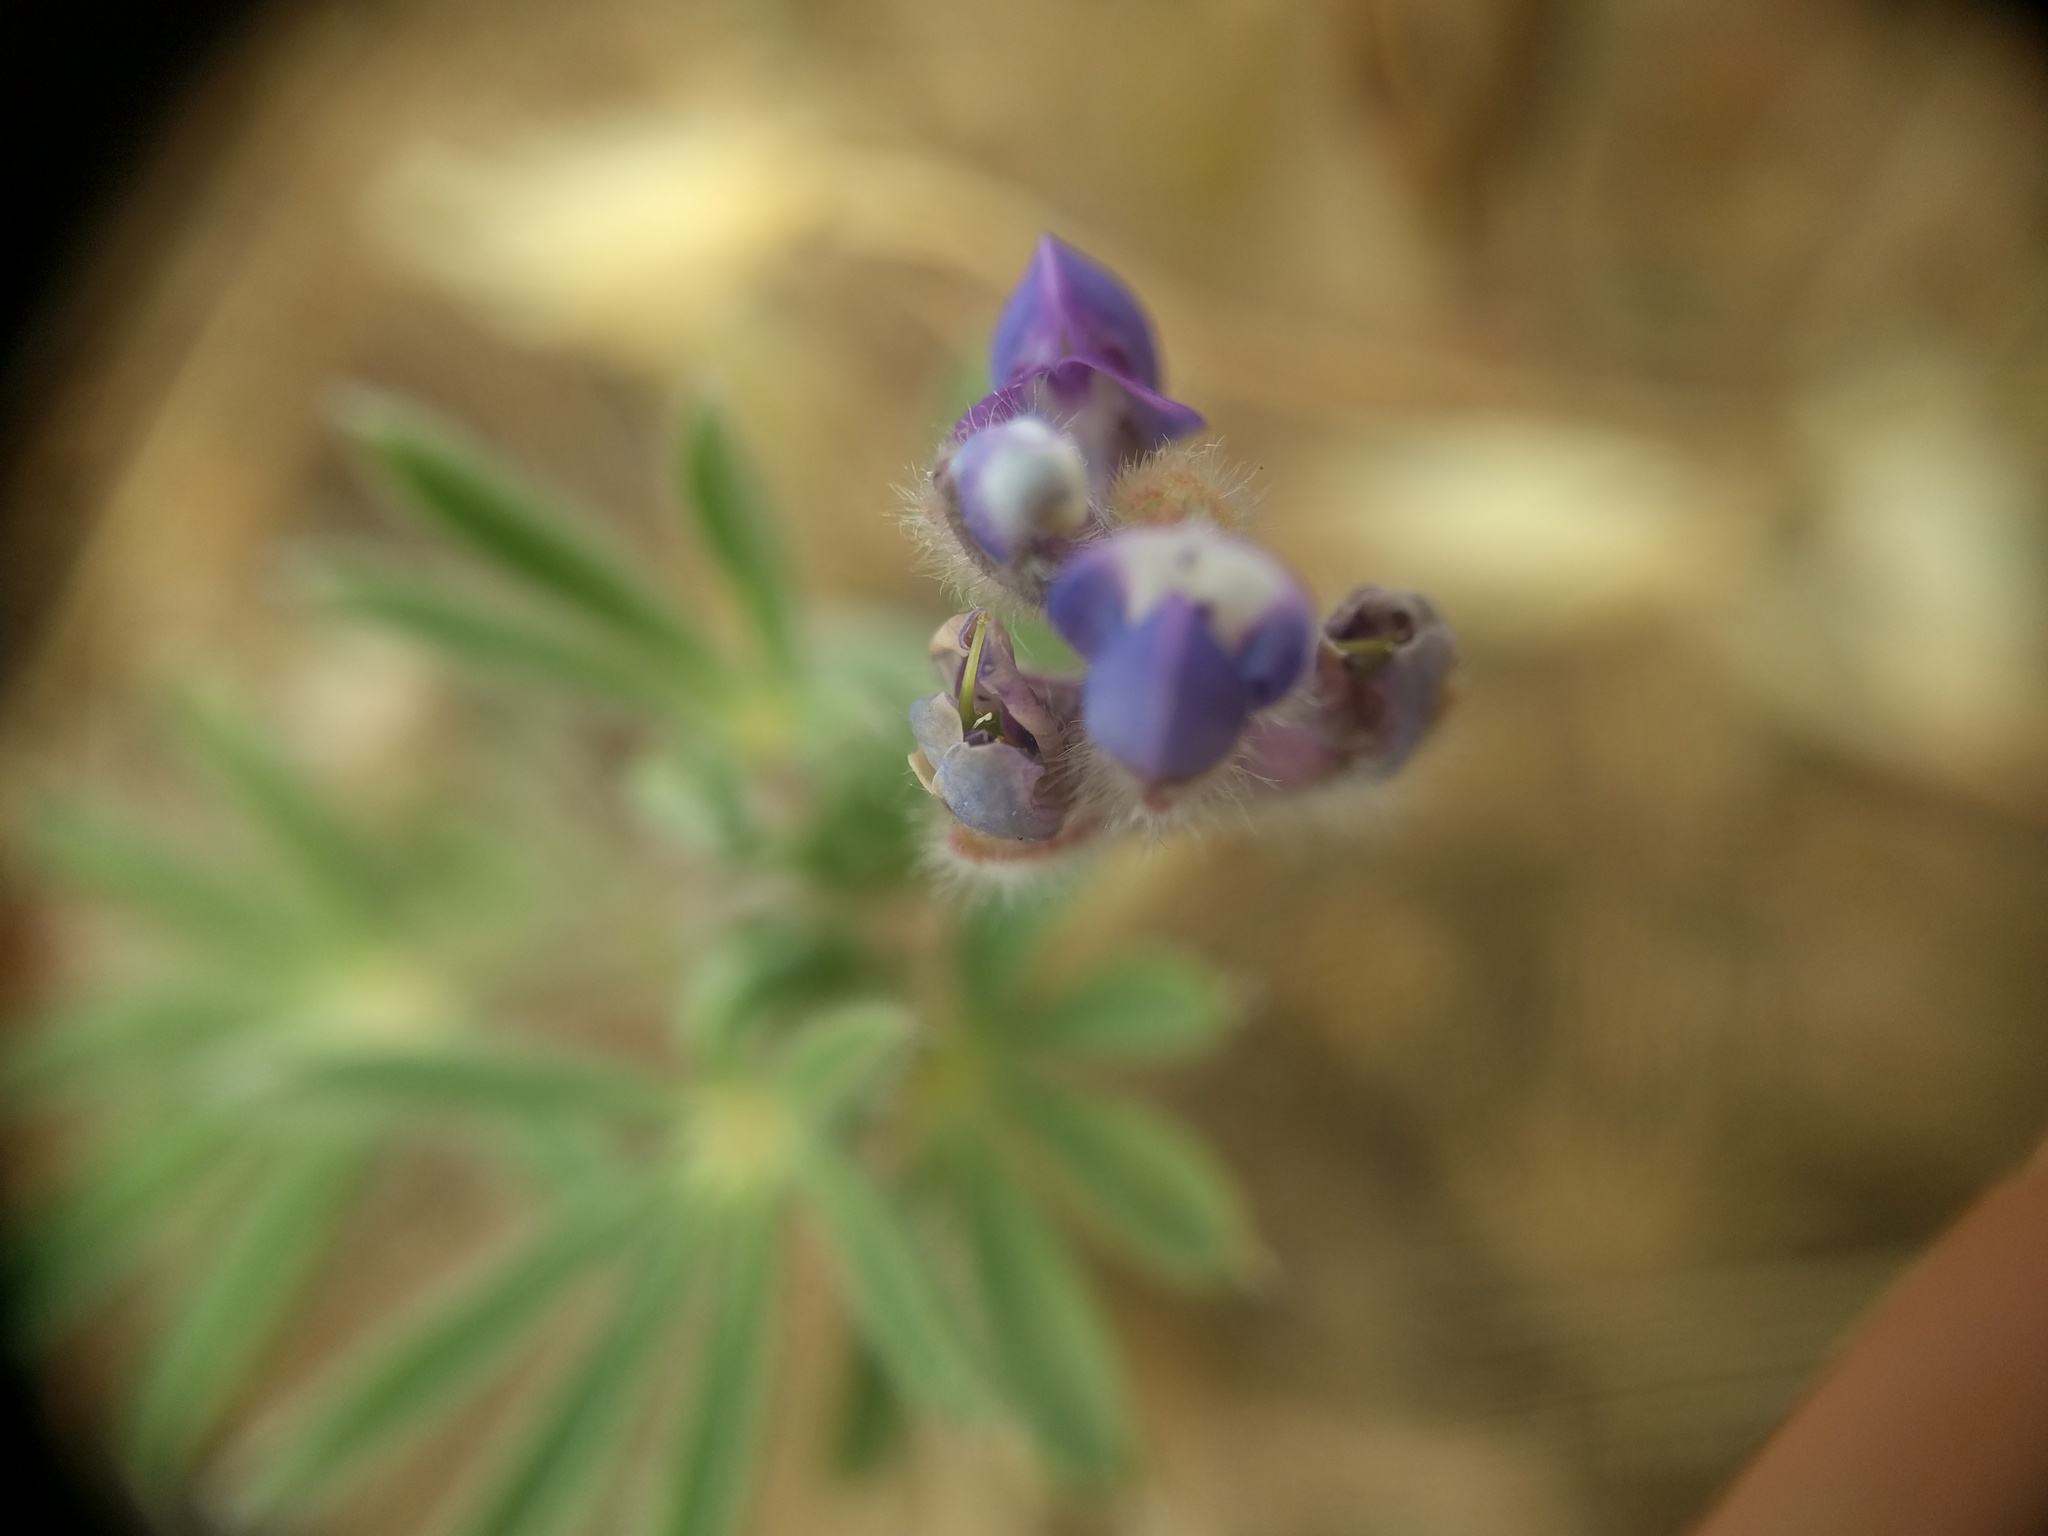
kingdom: Plantae
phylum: Tracheophyta
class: Magnoliopsida
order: Fabales
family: Fabaceae
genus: Lupinus
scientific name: Lupinus bicolor
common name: Miniature lupine
